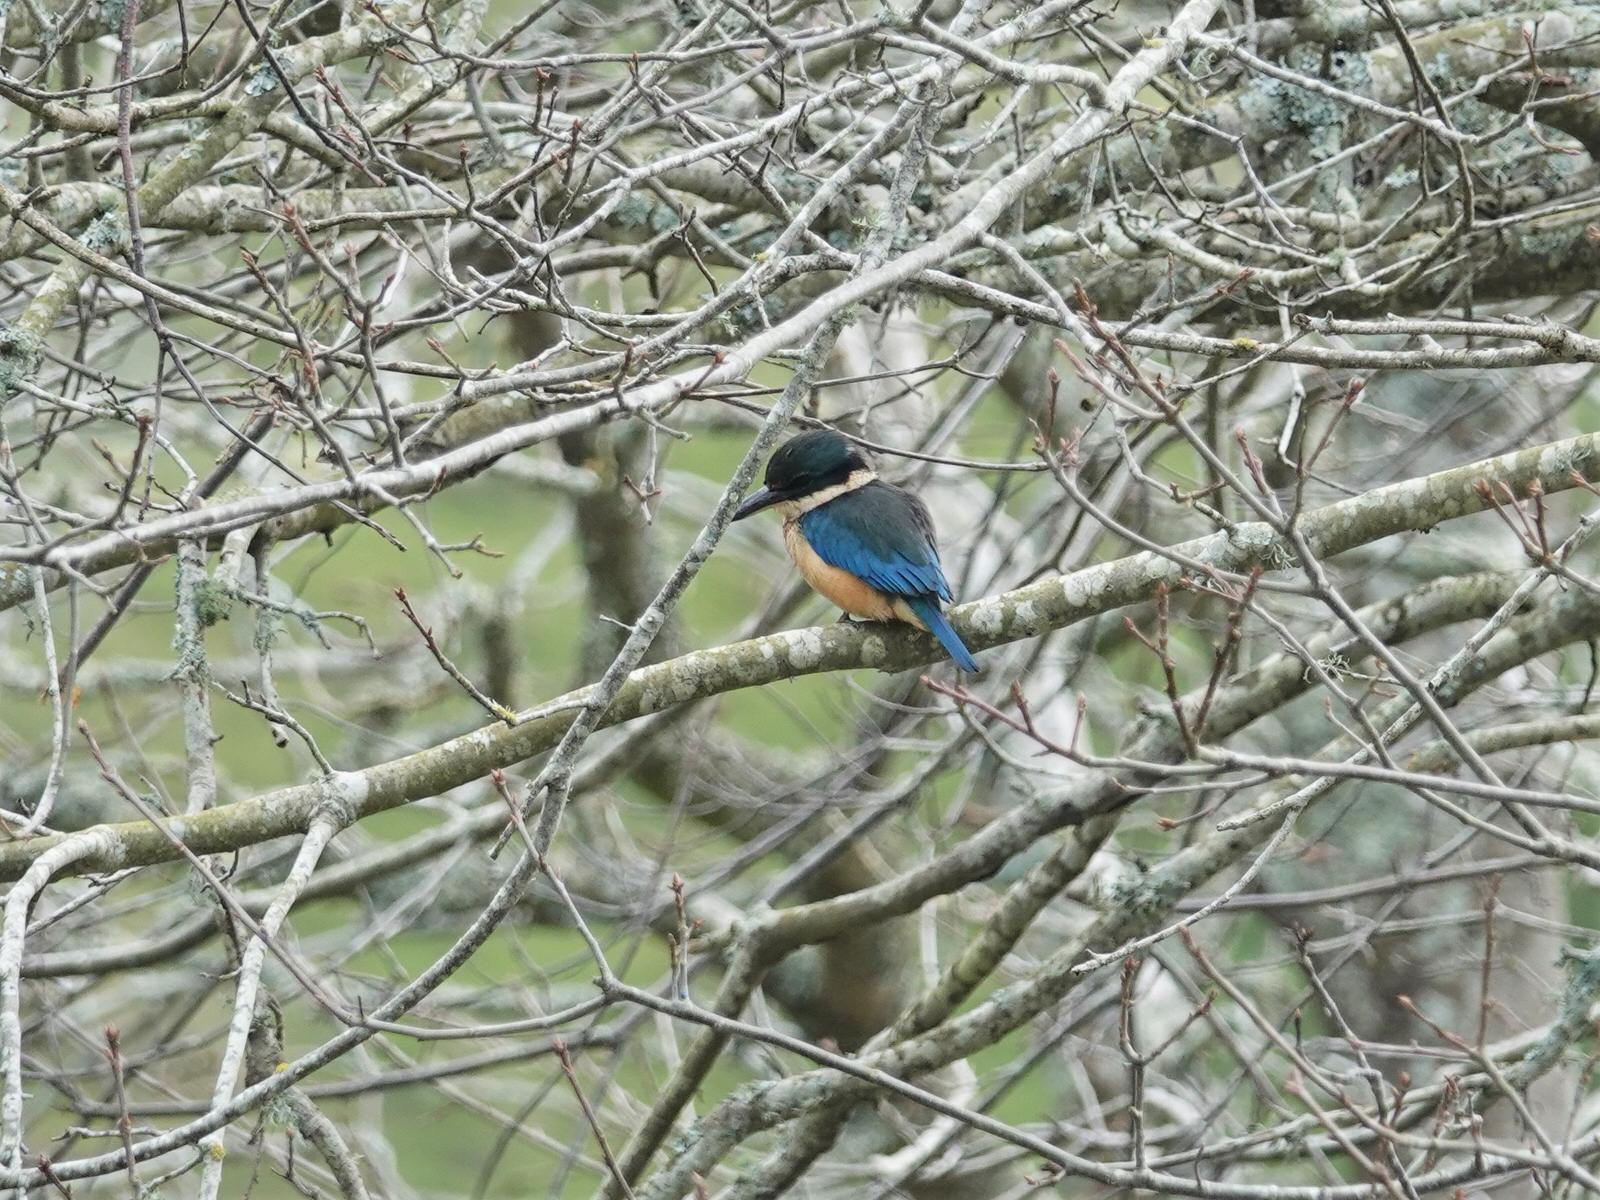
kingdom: Animalia
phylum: Chordata
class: Aves
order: Coraciiformes
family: Alcedinidae
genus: Todiramphus
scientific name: Todiramphus sanctus
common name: Sacred kingfisher
